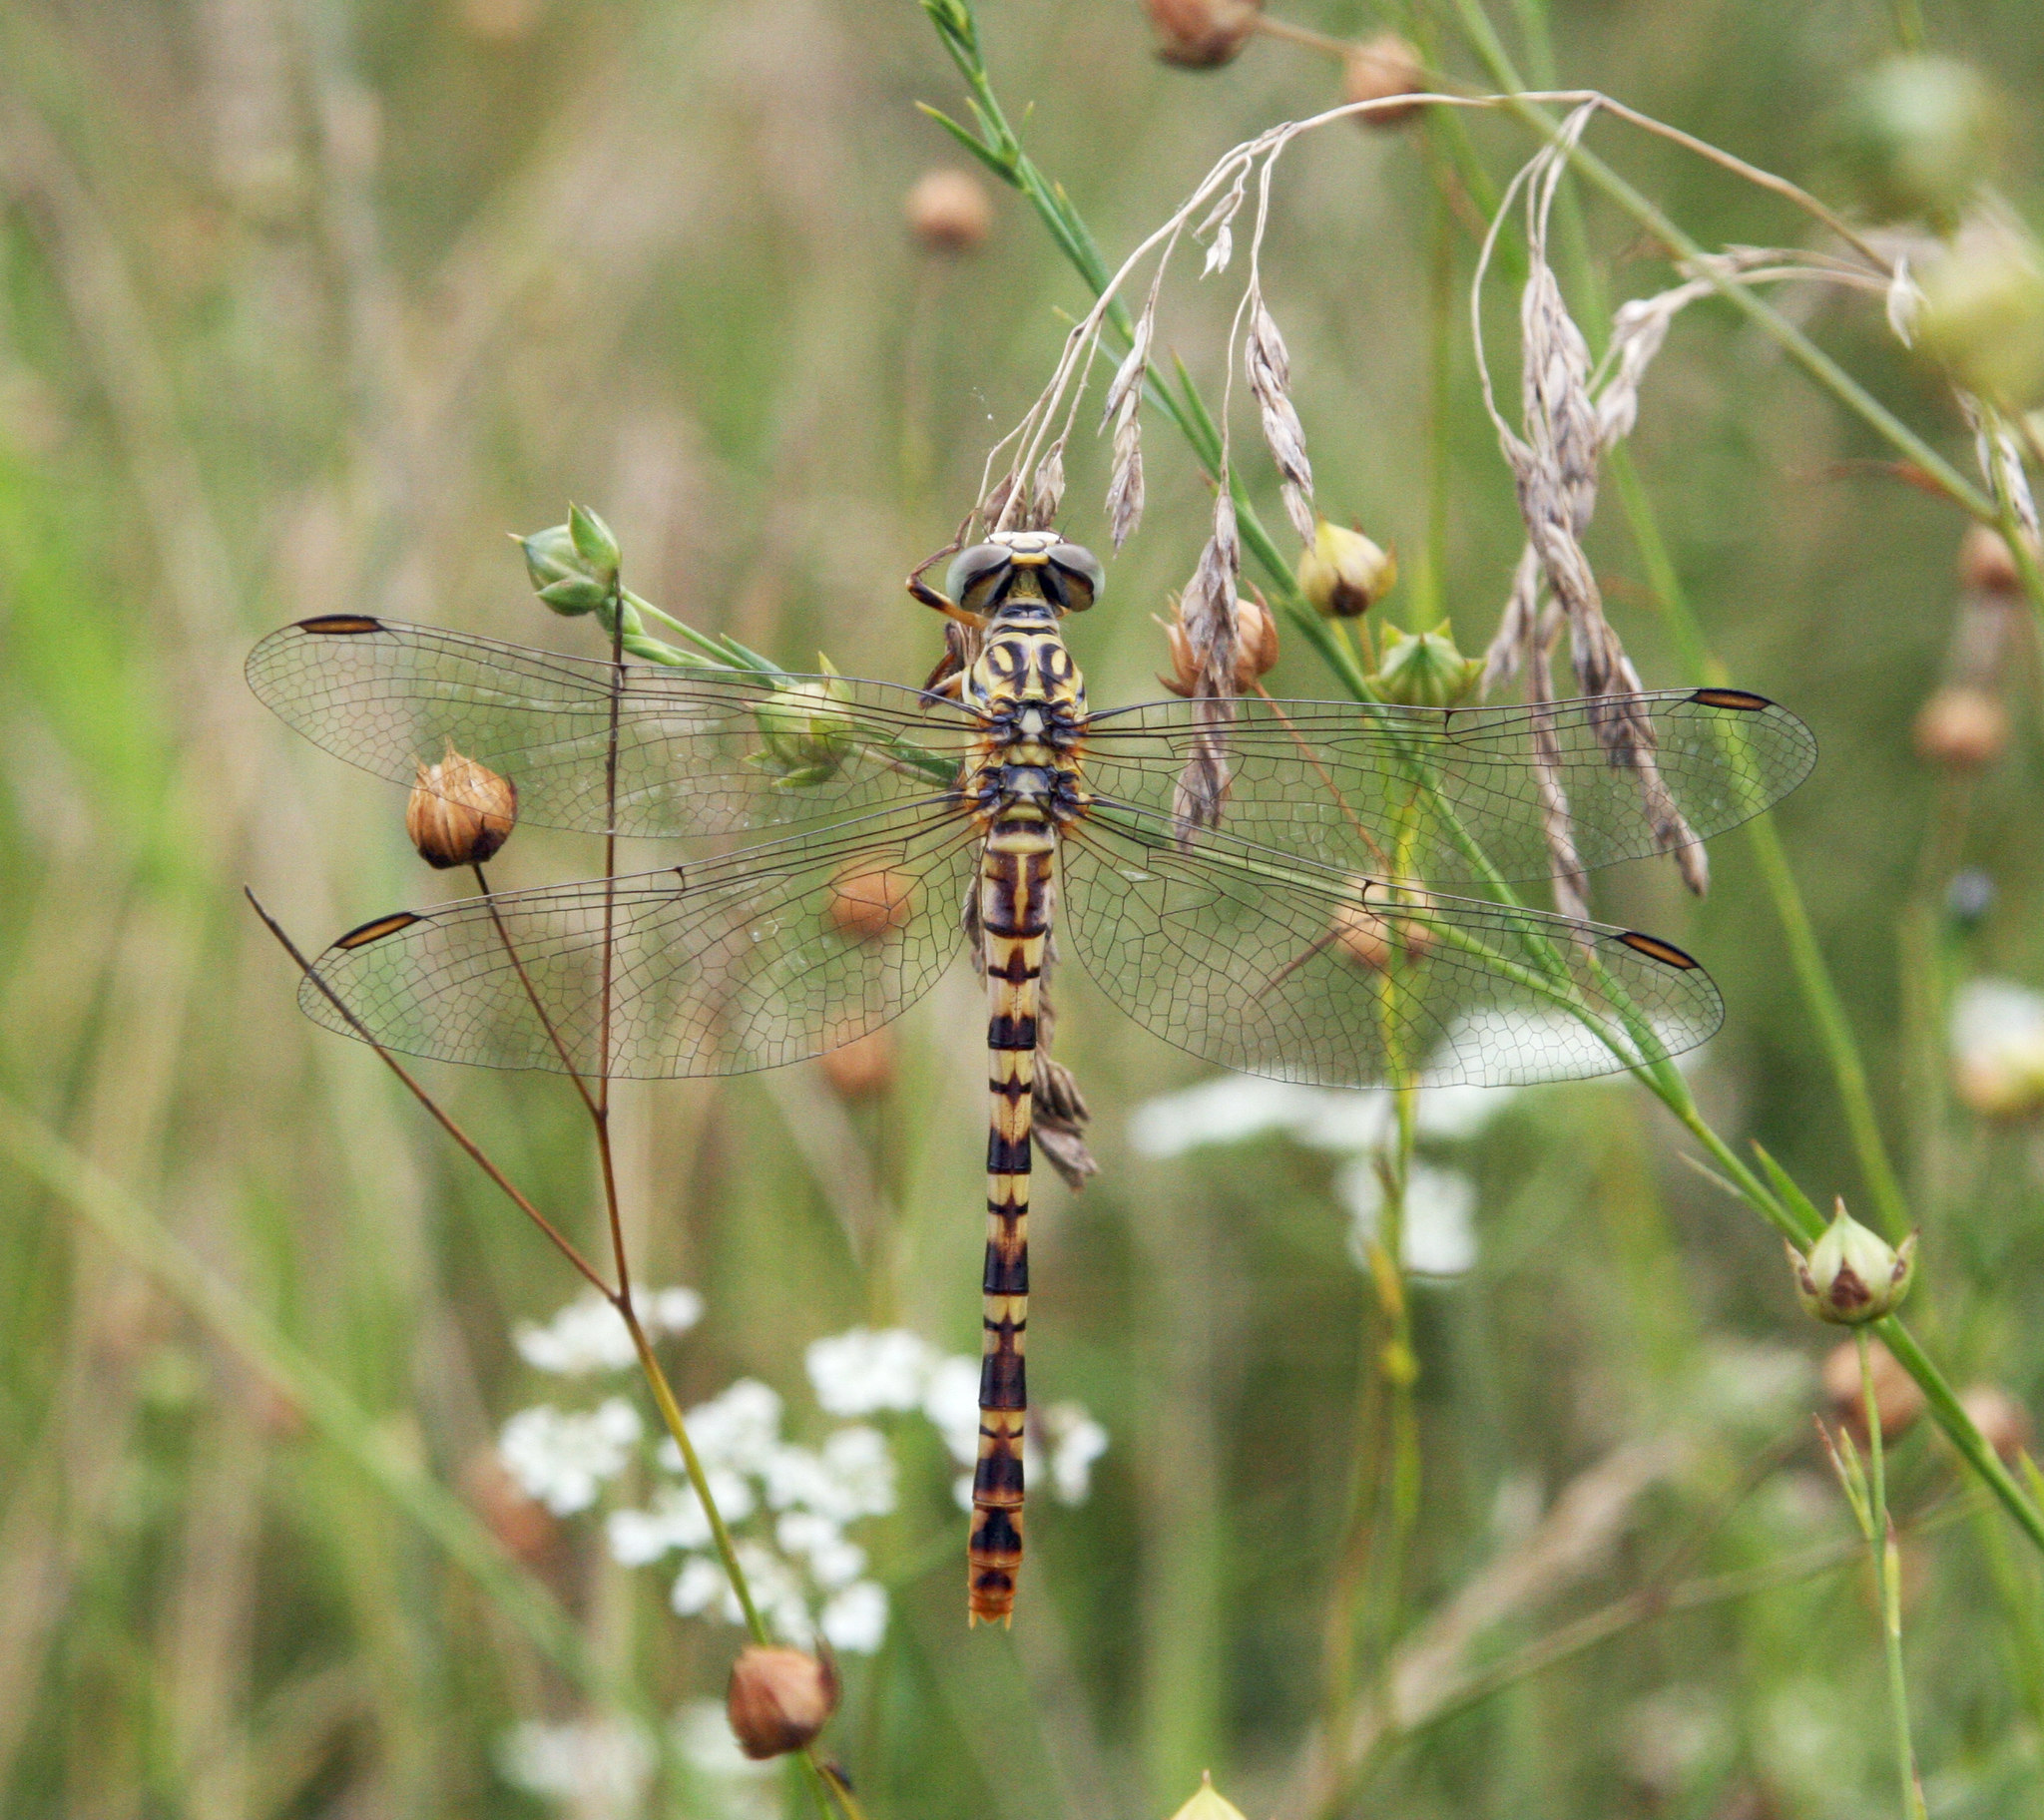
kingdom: Animalia
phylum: Arthropoda
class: Insecta
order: Odonata
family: Gomphidae
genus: Onychogomphus
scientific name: Onychogomphus flexuosus
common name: Waved pincertail
